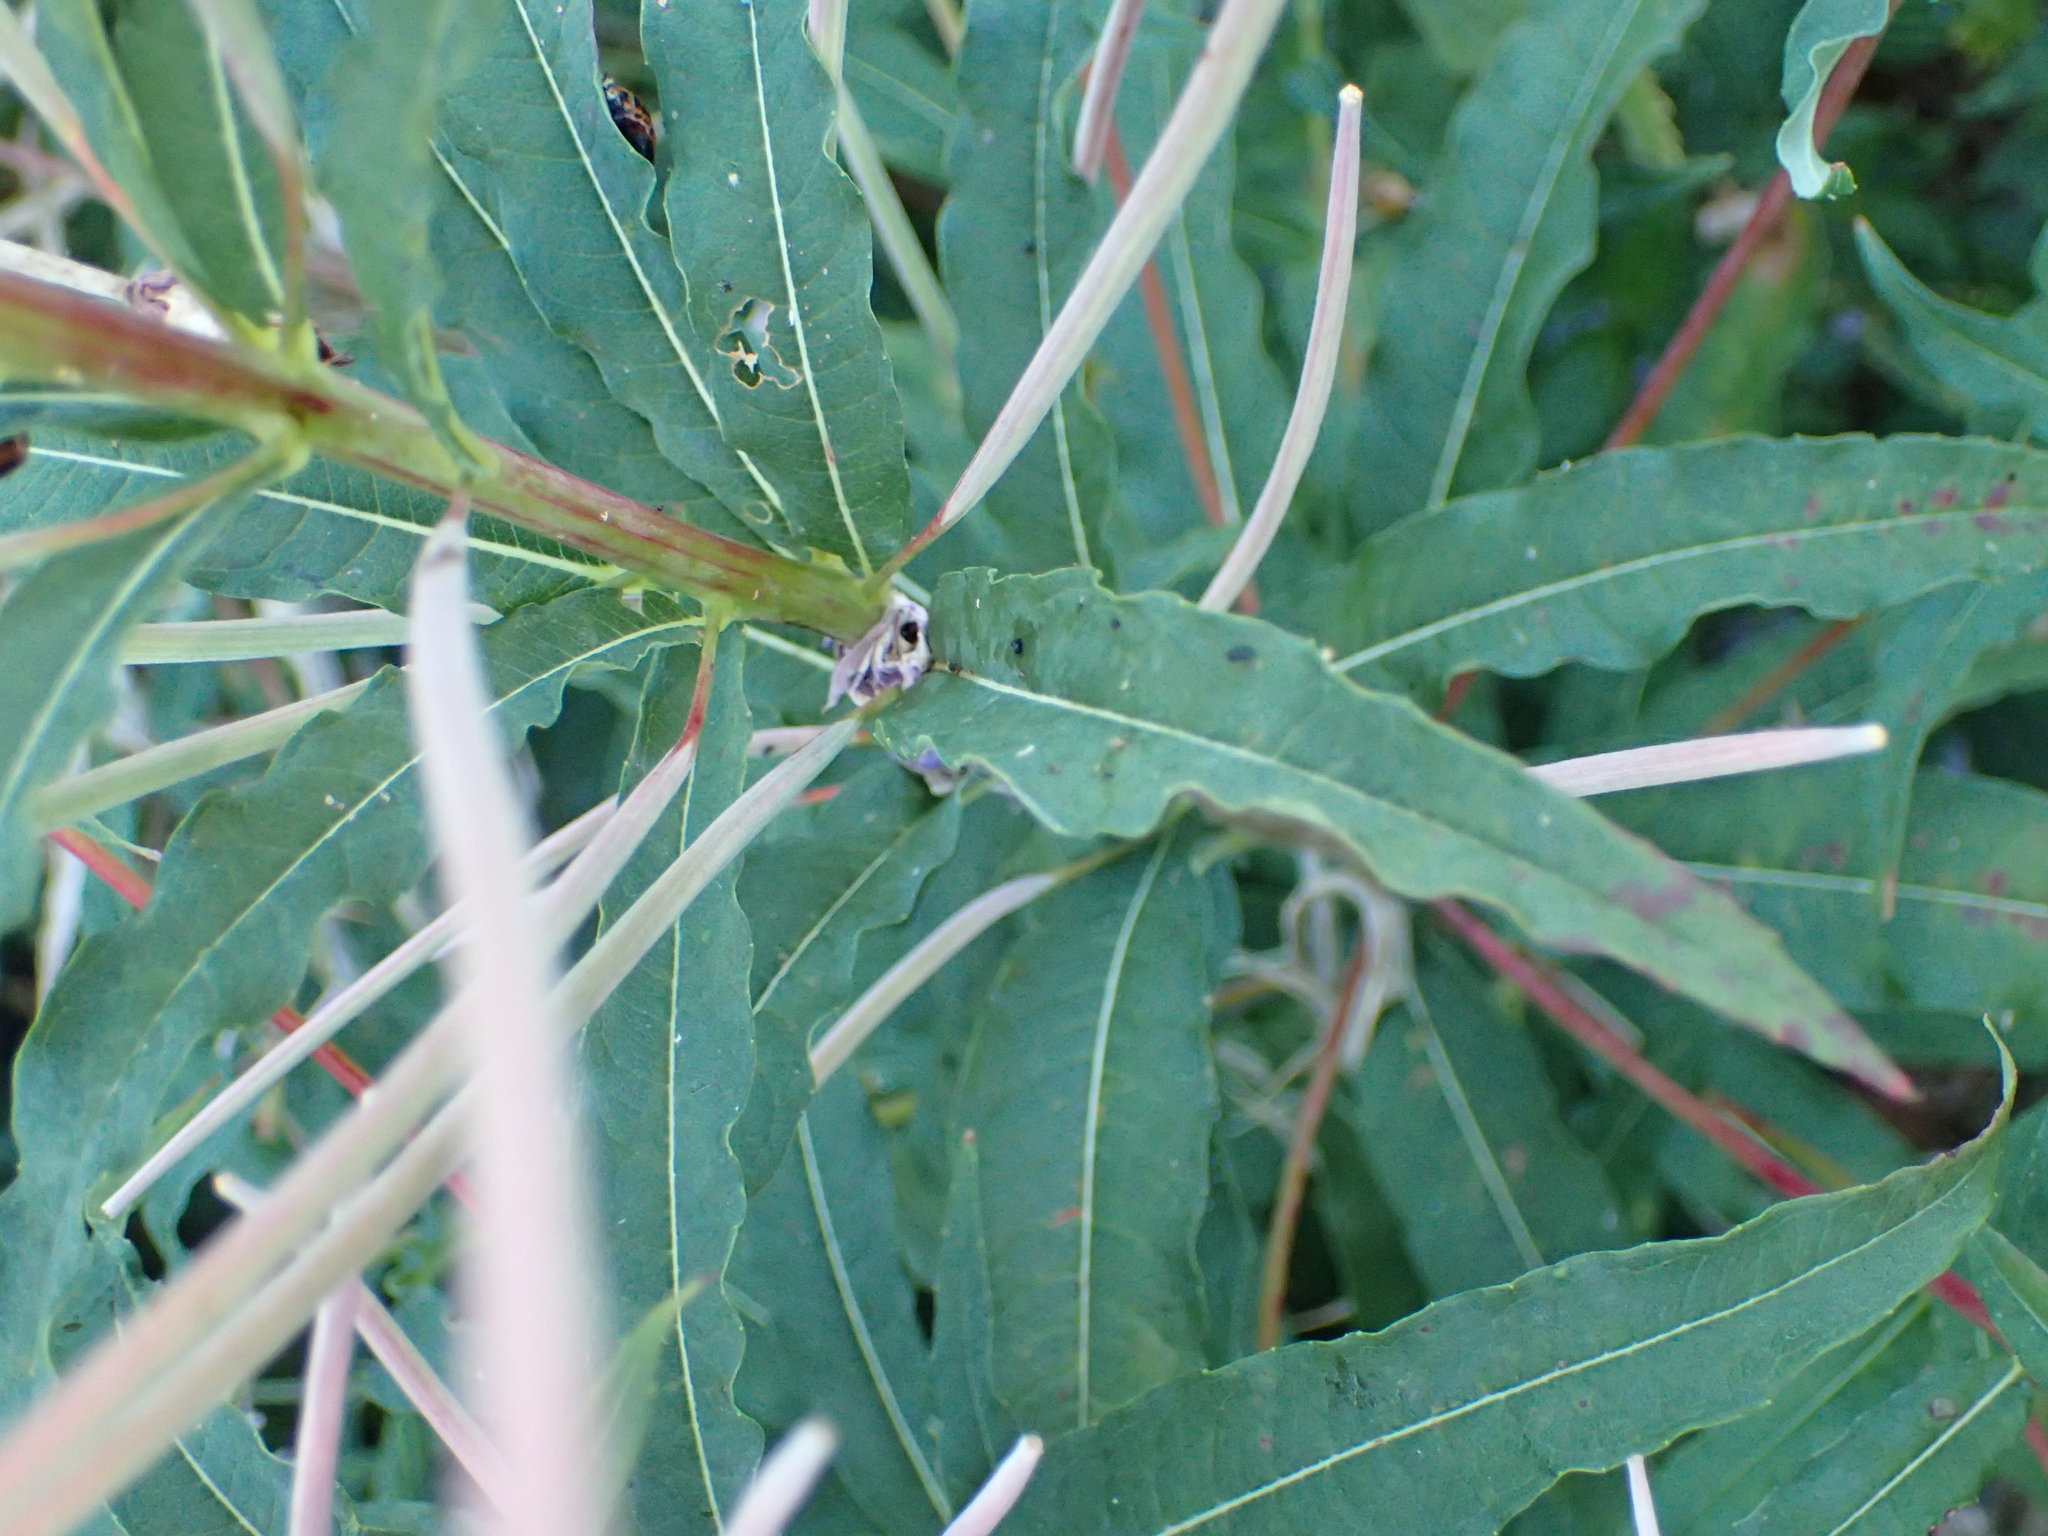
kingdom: Plantae
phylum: Tracheophyta
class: Magnoliopsida
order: Myrtales
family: Onagraceae
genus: Chamaenerion
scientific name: Chamaenerion angustifolium
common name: Fireweed
